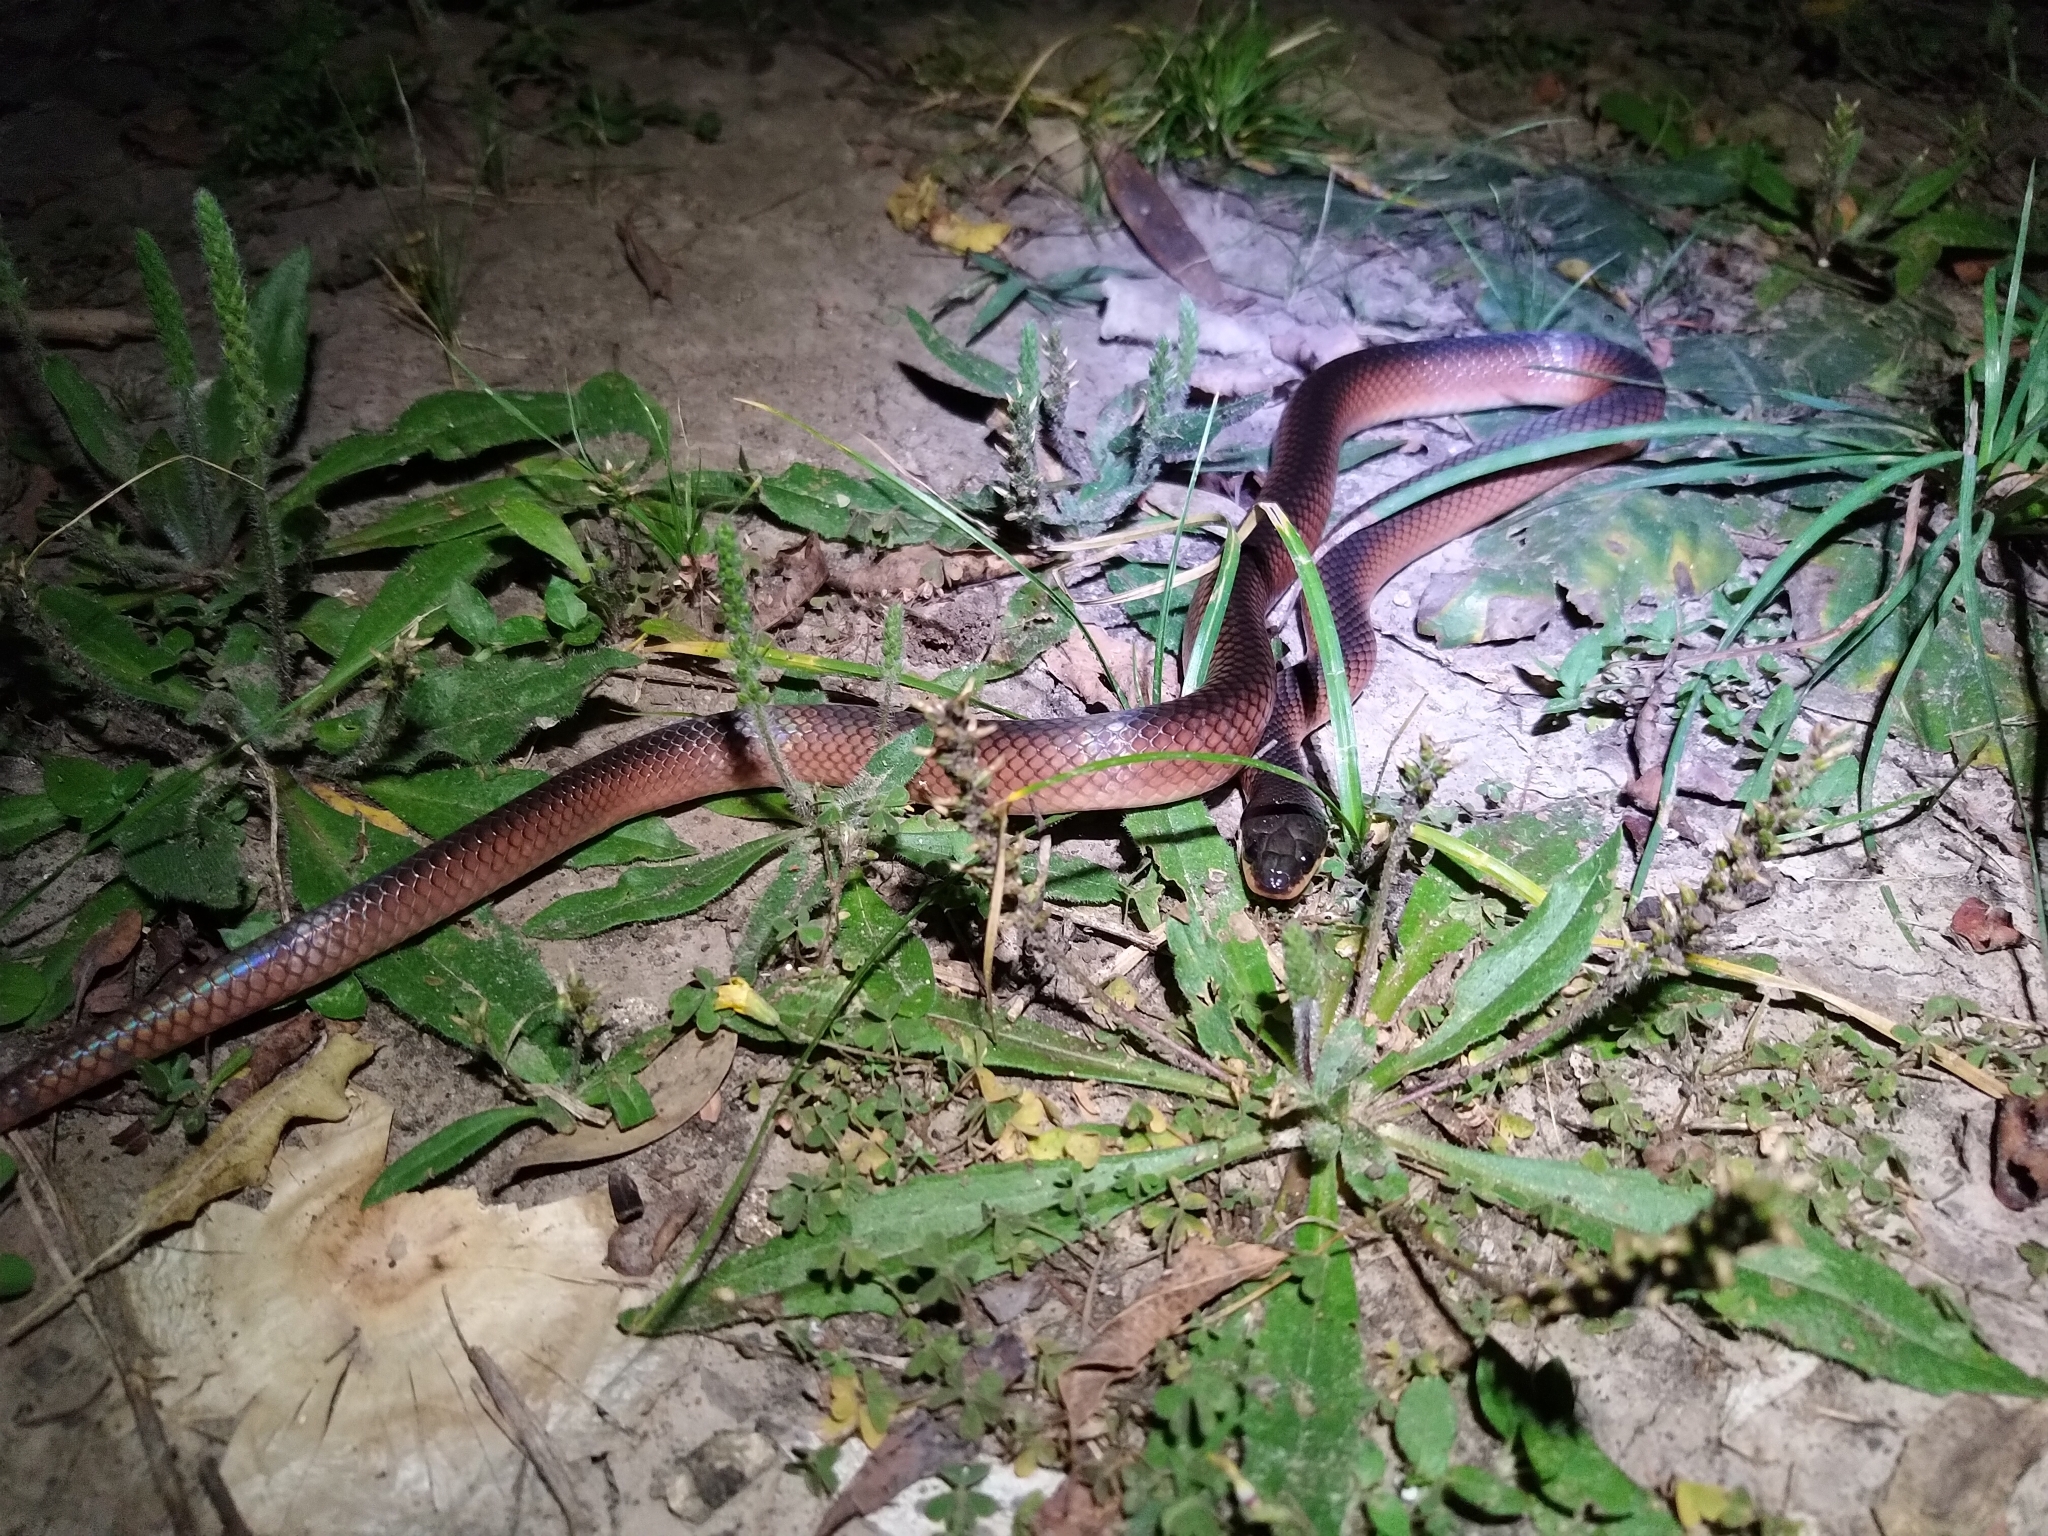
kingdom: Animalia
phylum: Chordata
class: Squamata
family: Colubridae
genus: Mussurana
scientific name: Mussurana bicolor
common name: Two-colored mussurana
